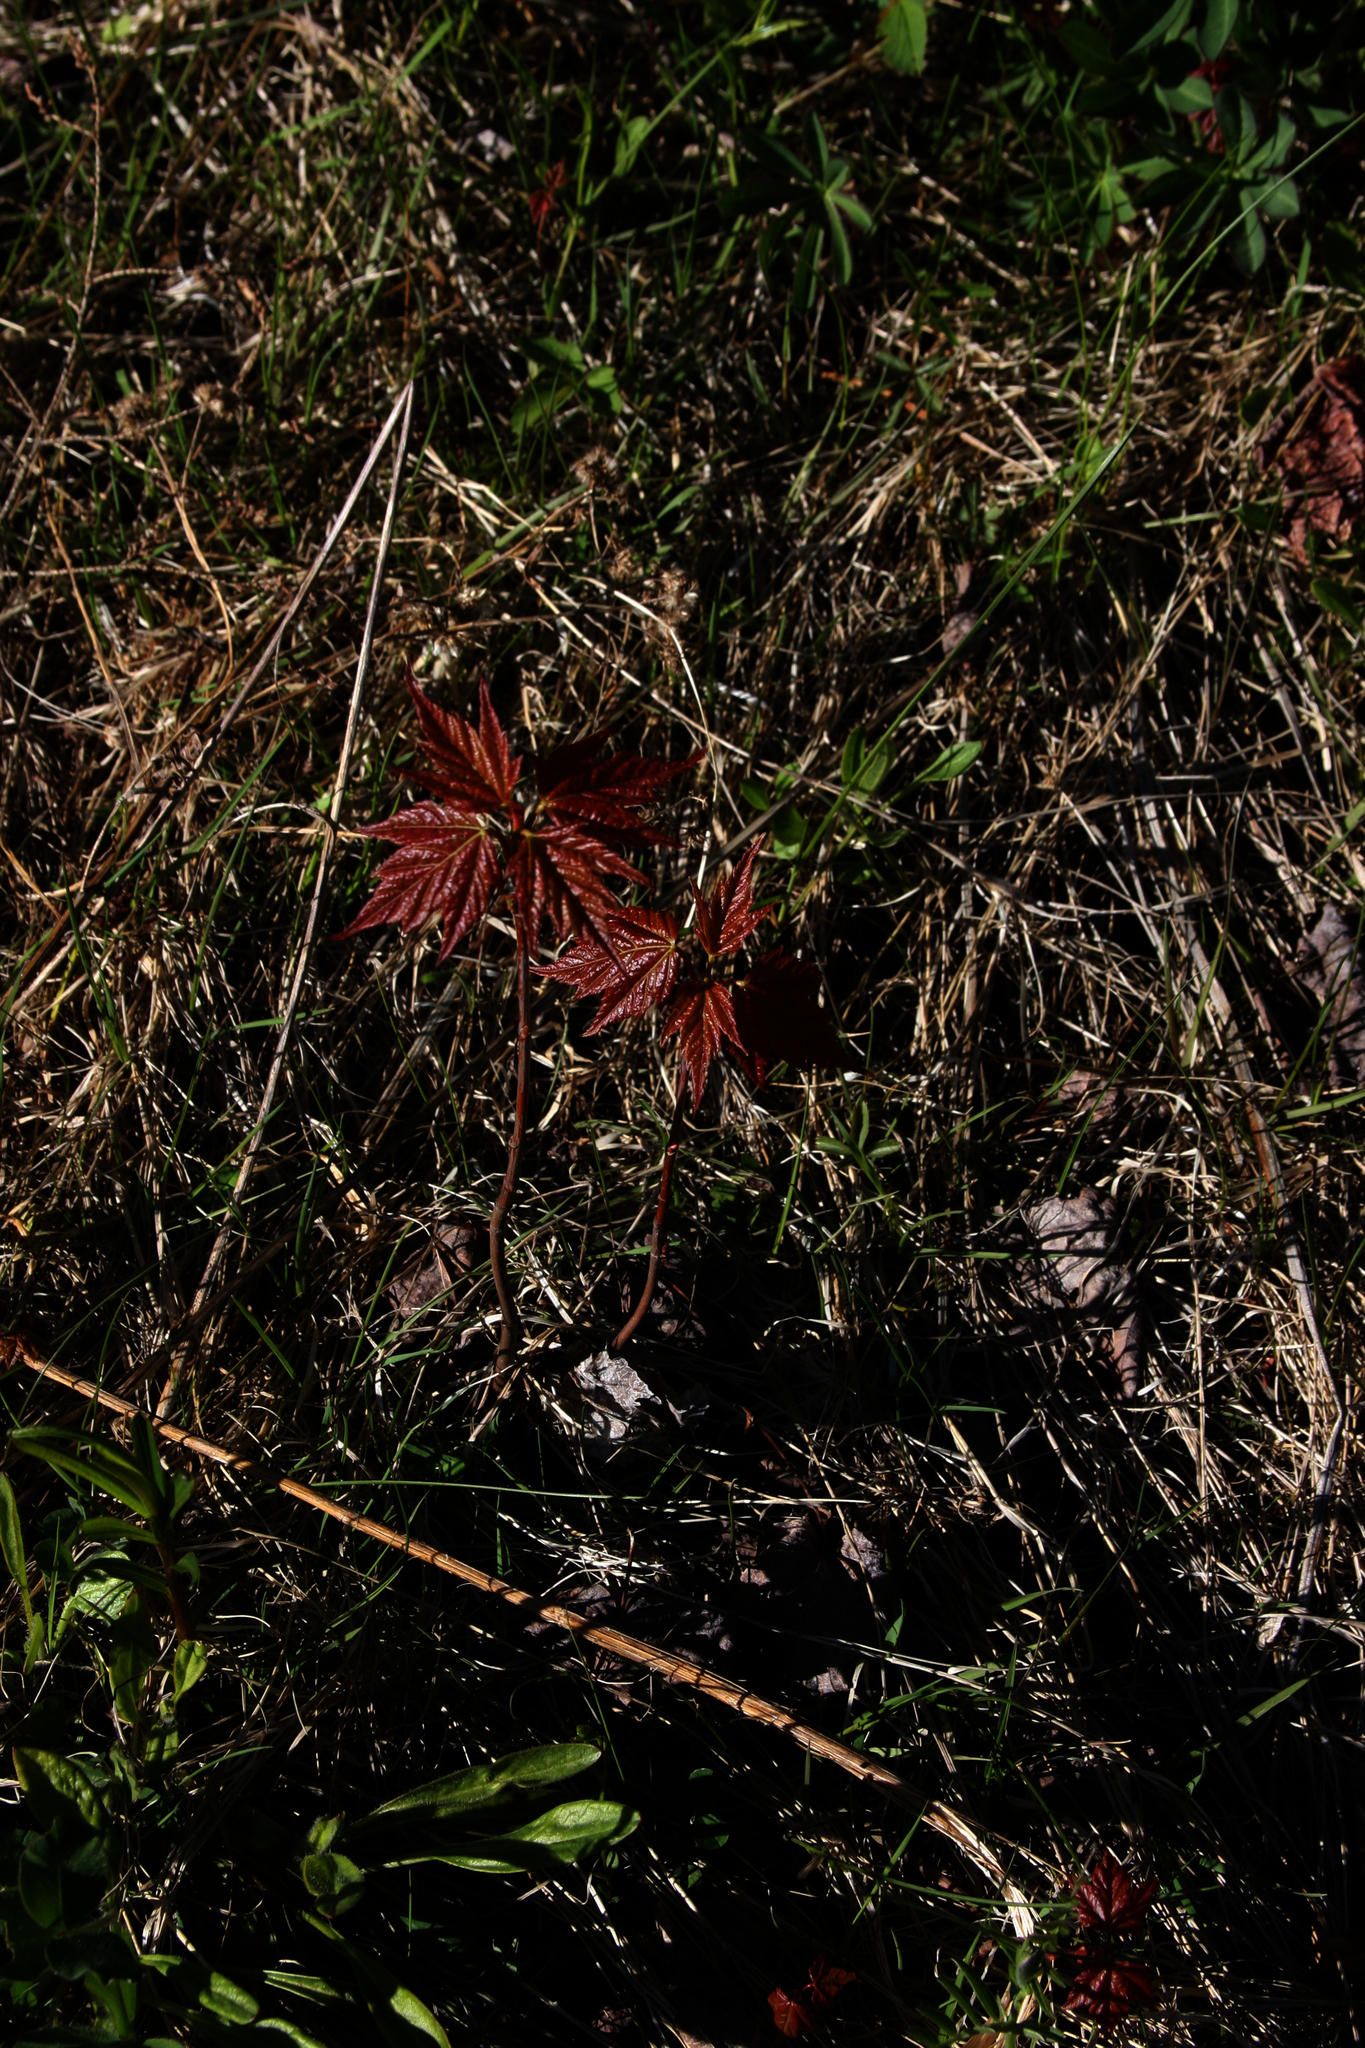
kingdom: Plantae
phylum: Tracheophyta
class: Magnoliopsida
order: Sapindales
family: Sapindaceae
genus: Acer
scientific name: Acer rubrum
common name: Red maple
